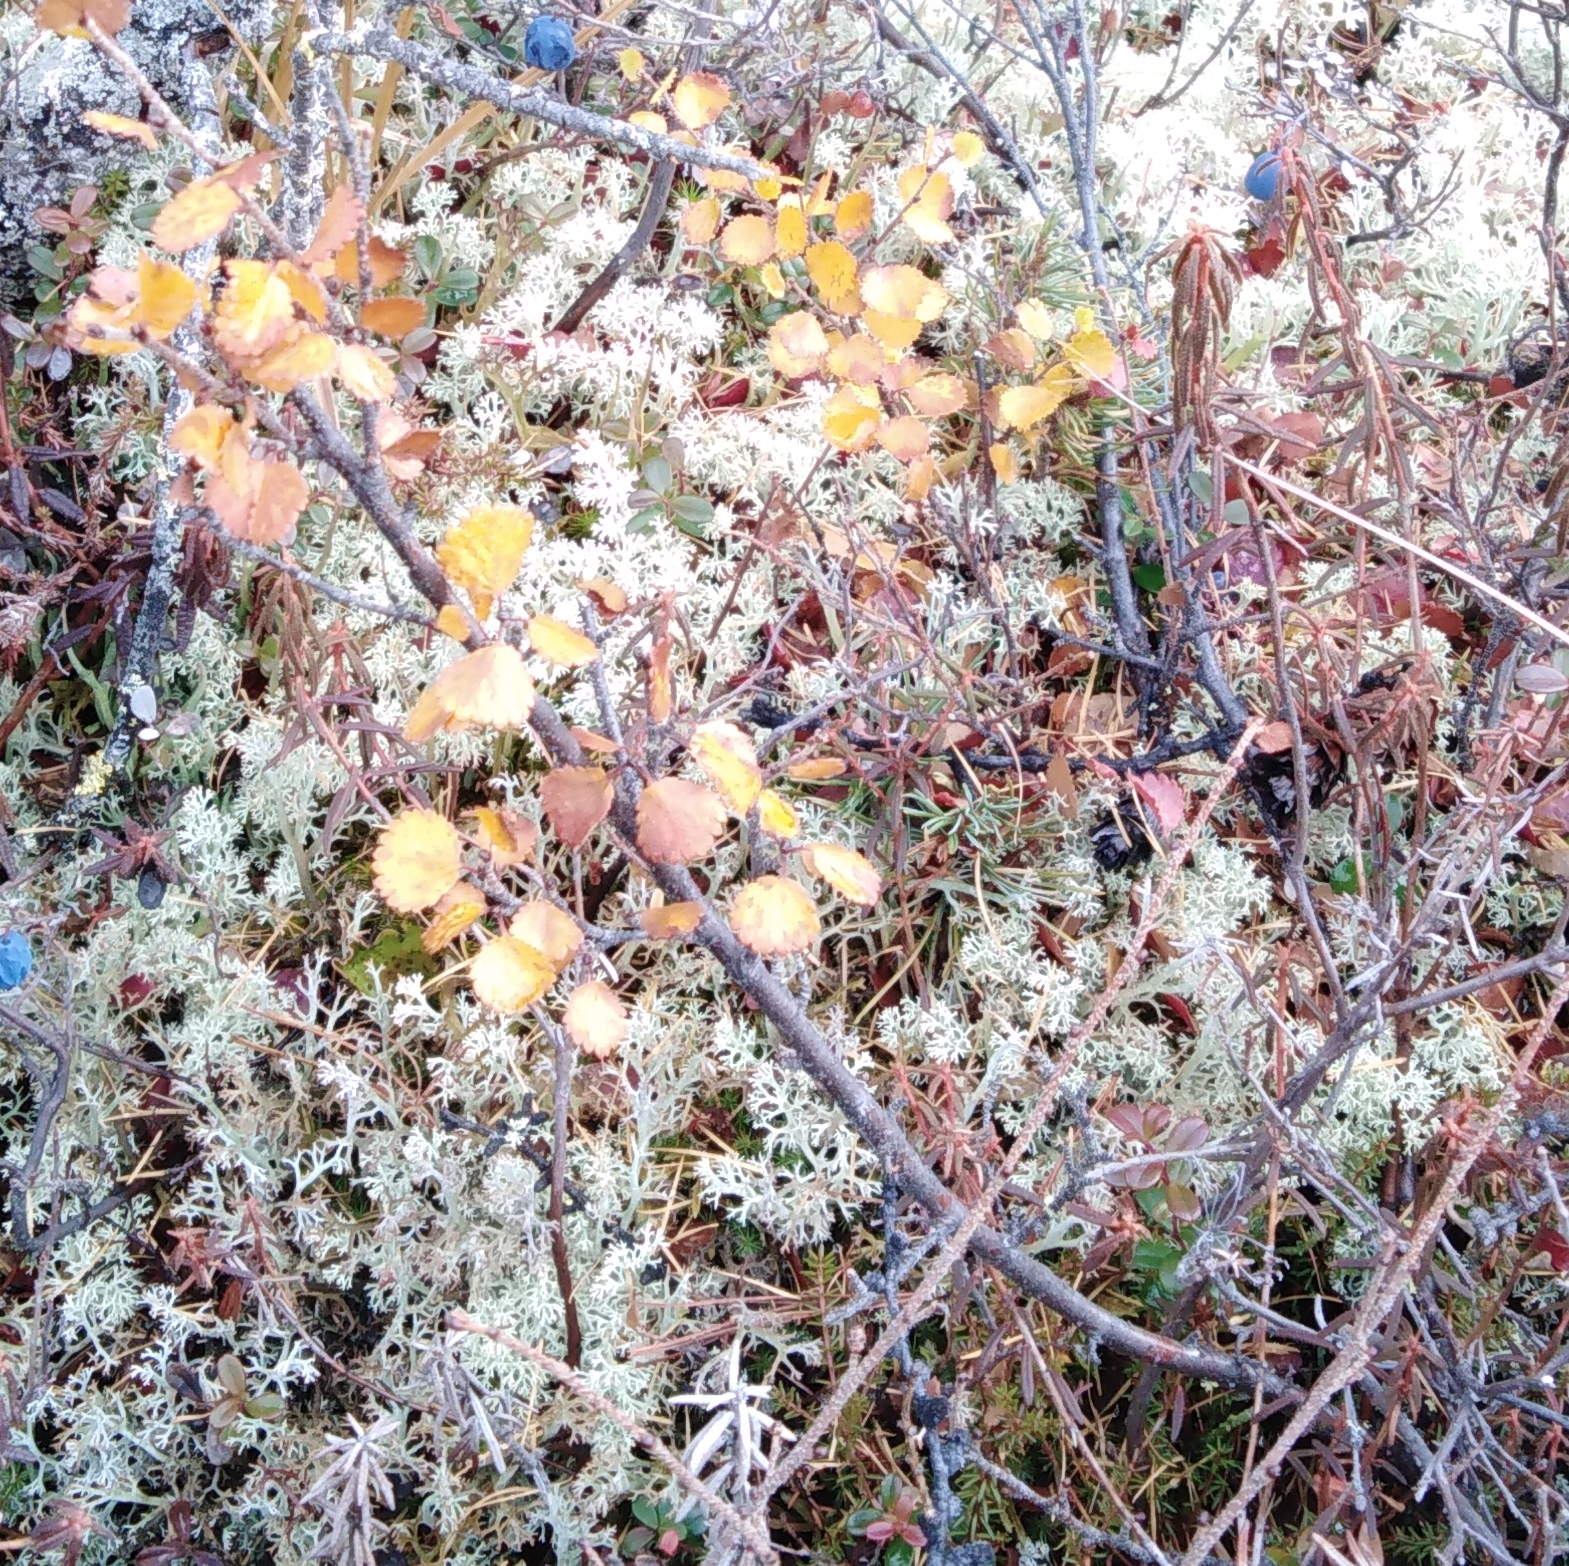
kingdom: Plantae
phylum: Tracheophyta
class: Magnoliopsida
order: Fagales
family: Betulaceae
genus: Betula
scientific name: Betula fruticosa
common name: Japanese bog birch
